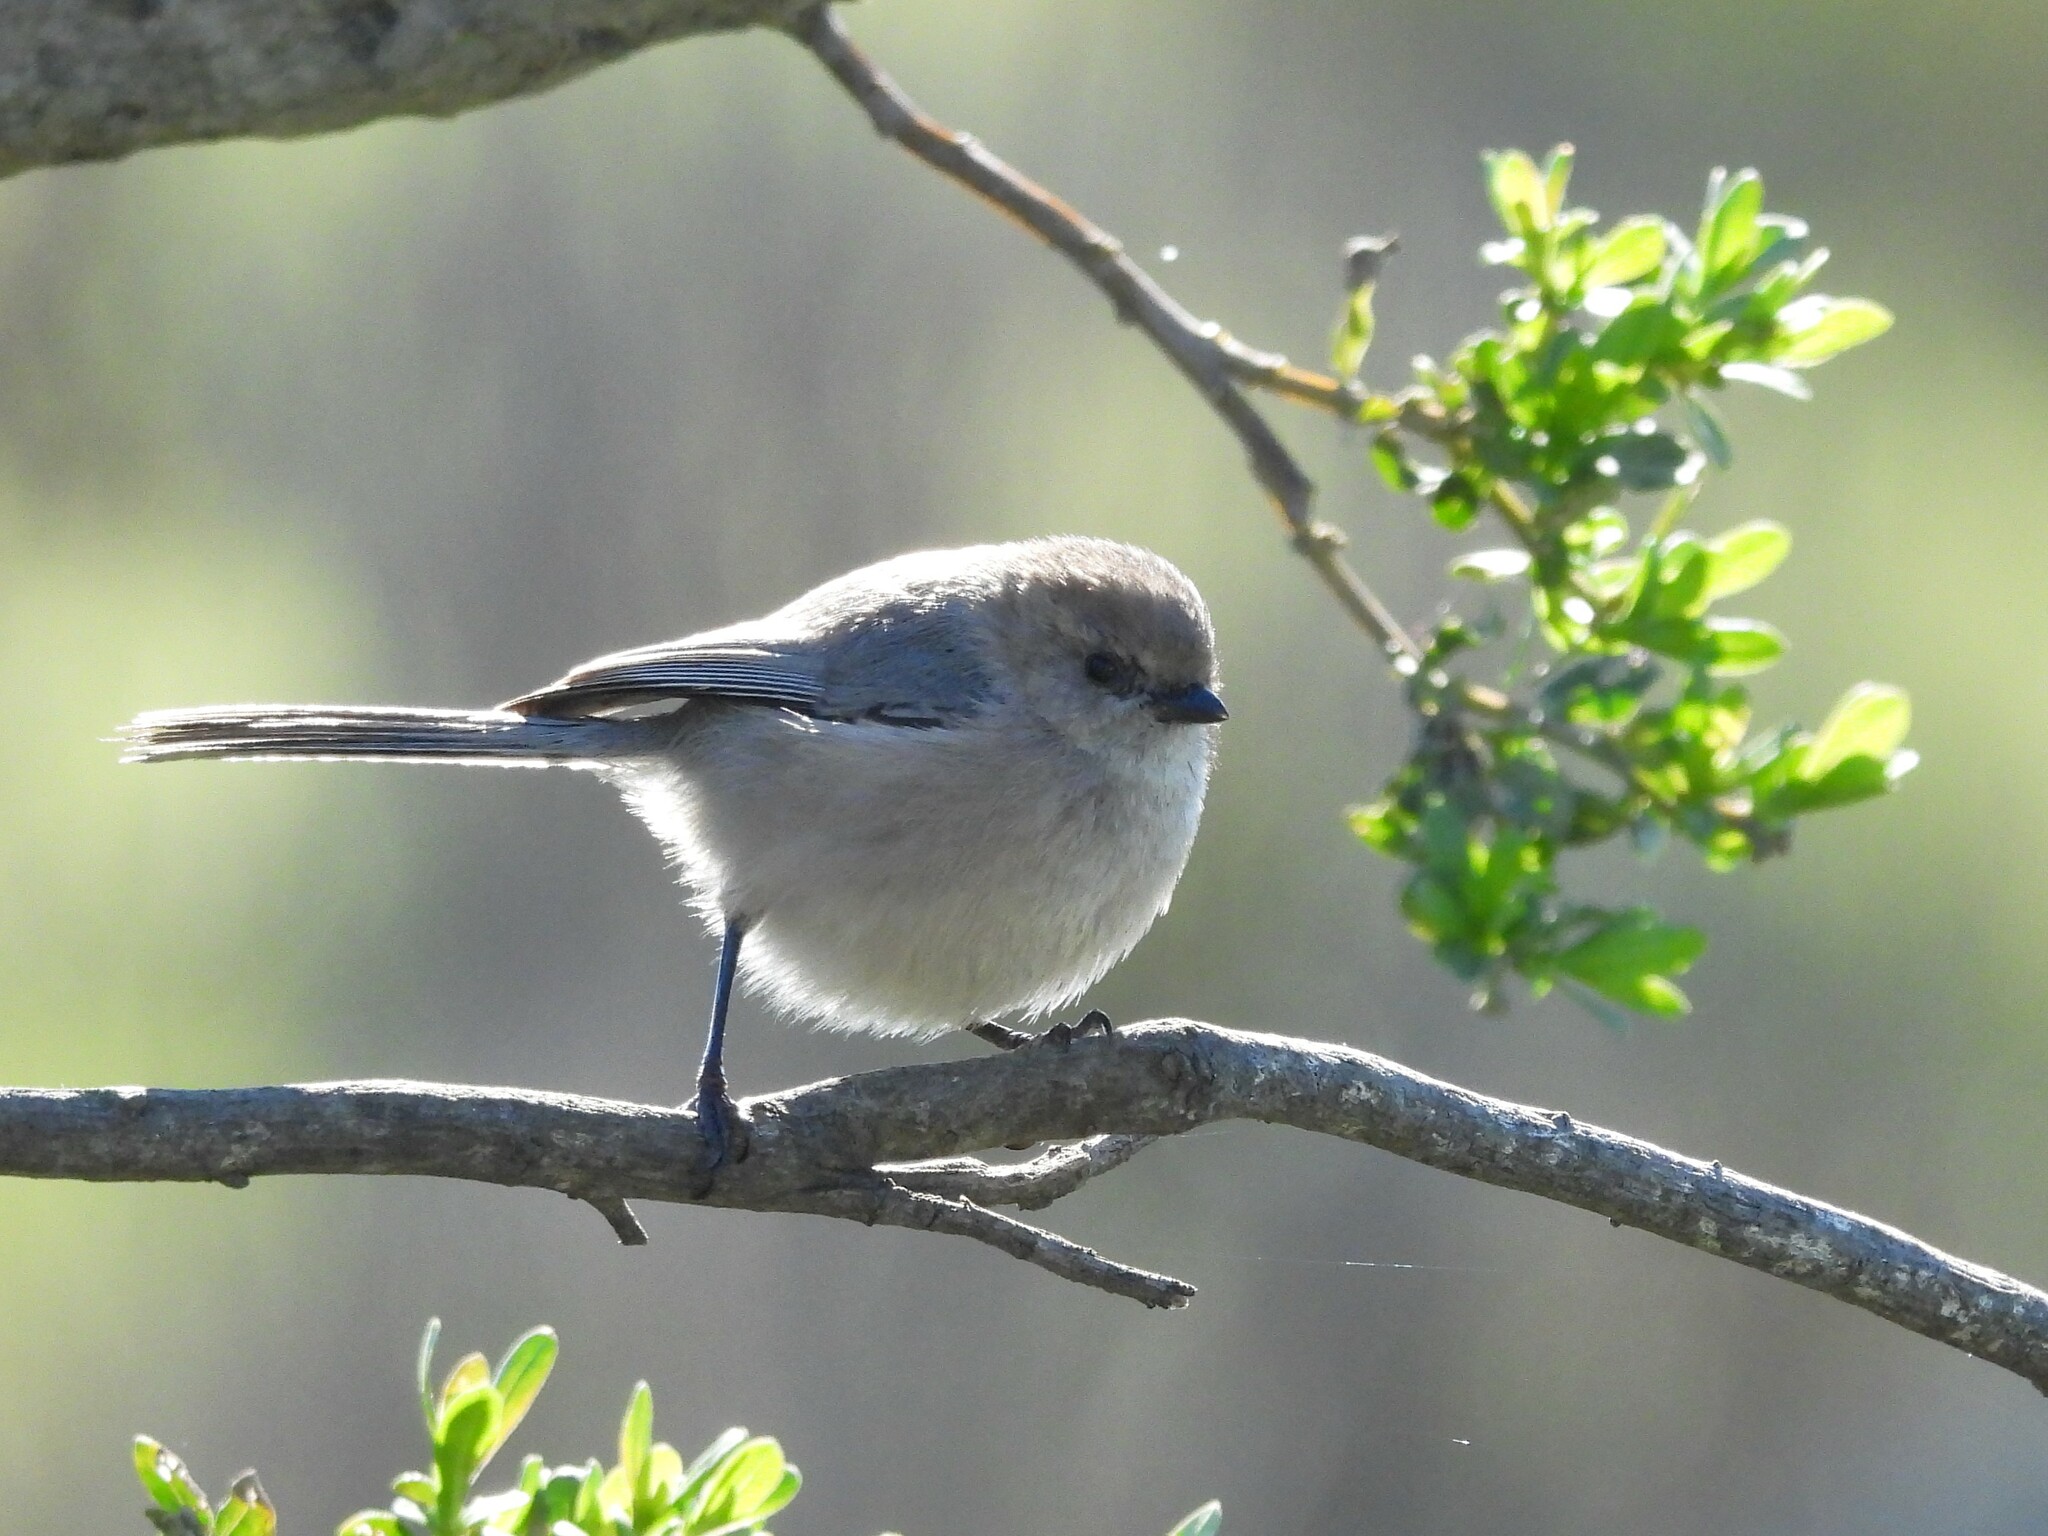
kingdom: Animalia
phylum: Chordata
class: Aves
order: Passeriformes
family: Aegithalidae
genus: Psaltriparus
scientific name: Psaltriparus minimus
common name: American bushtit
